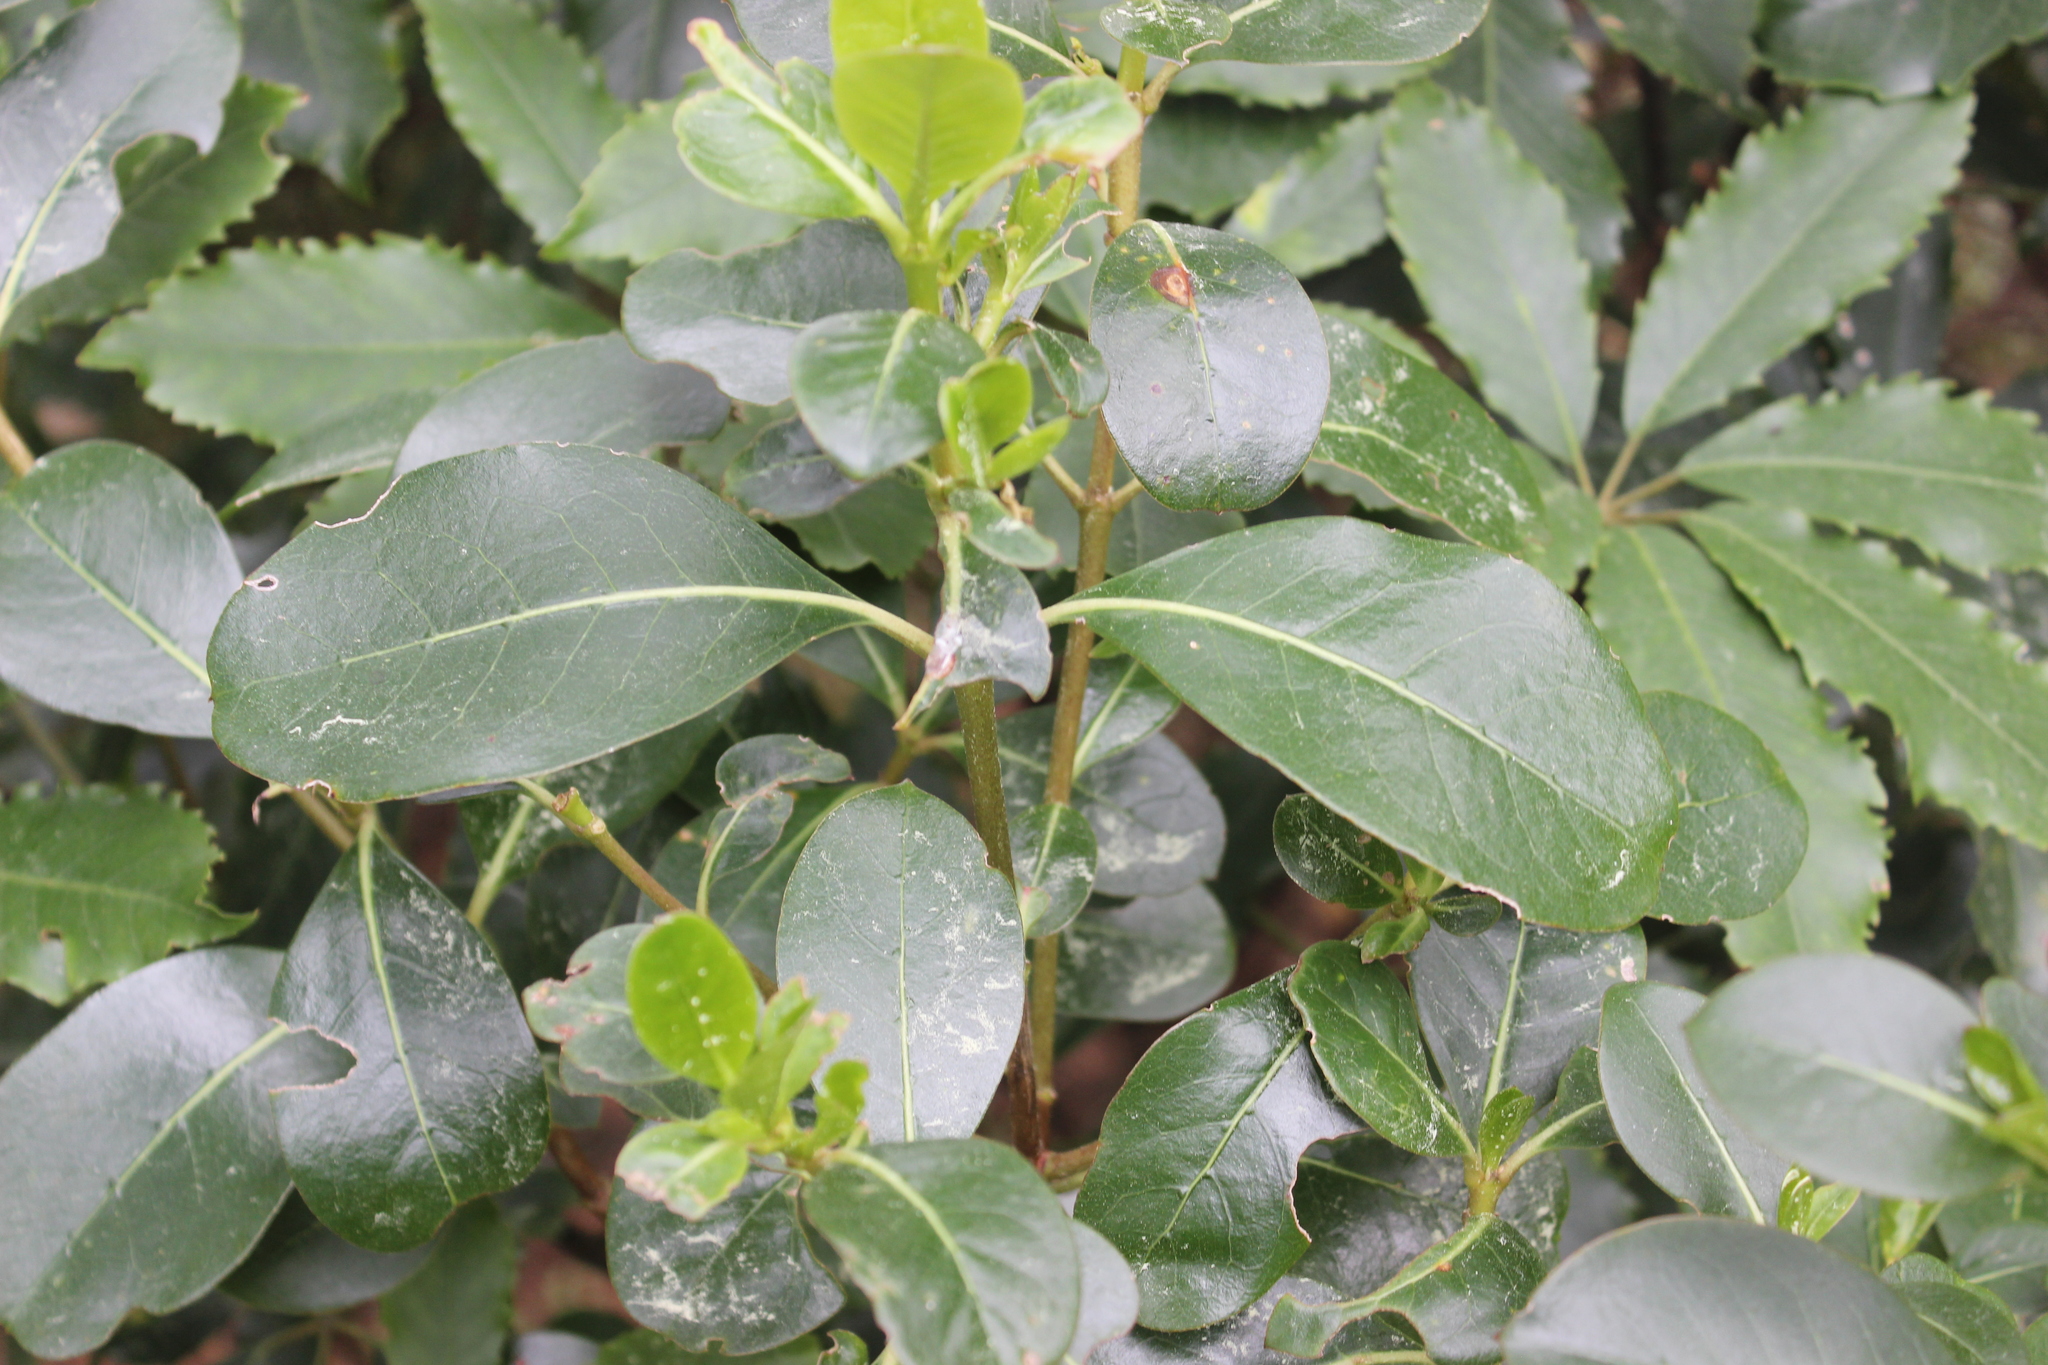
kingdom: Plantae
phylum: Tracheophyta
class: Magnoliopsida
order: Gentianales
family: Rubiaceae
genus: Coprosma
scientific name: Coprosma lucida
